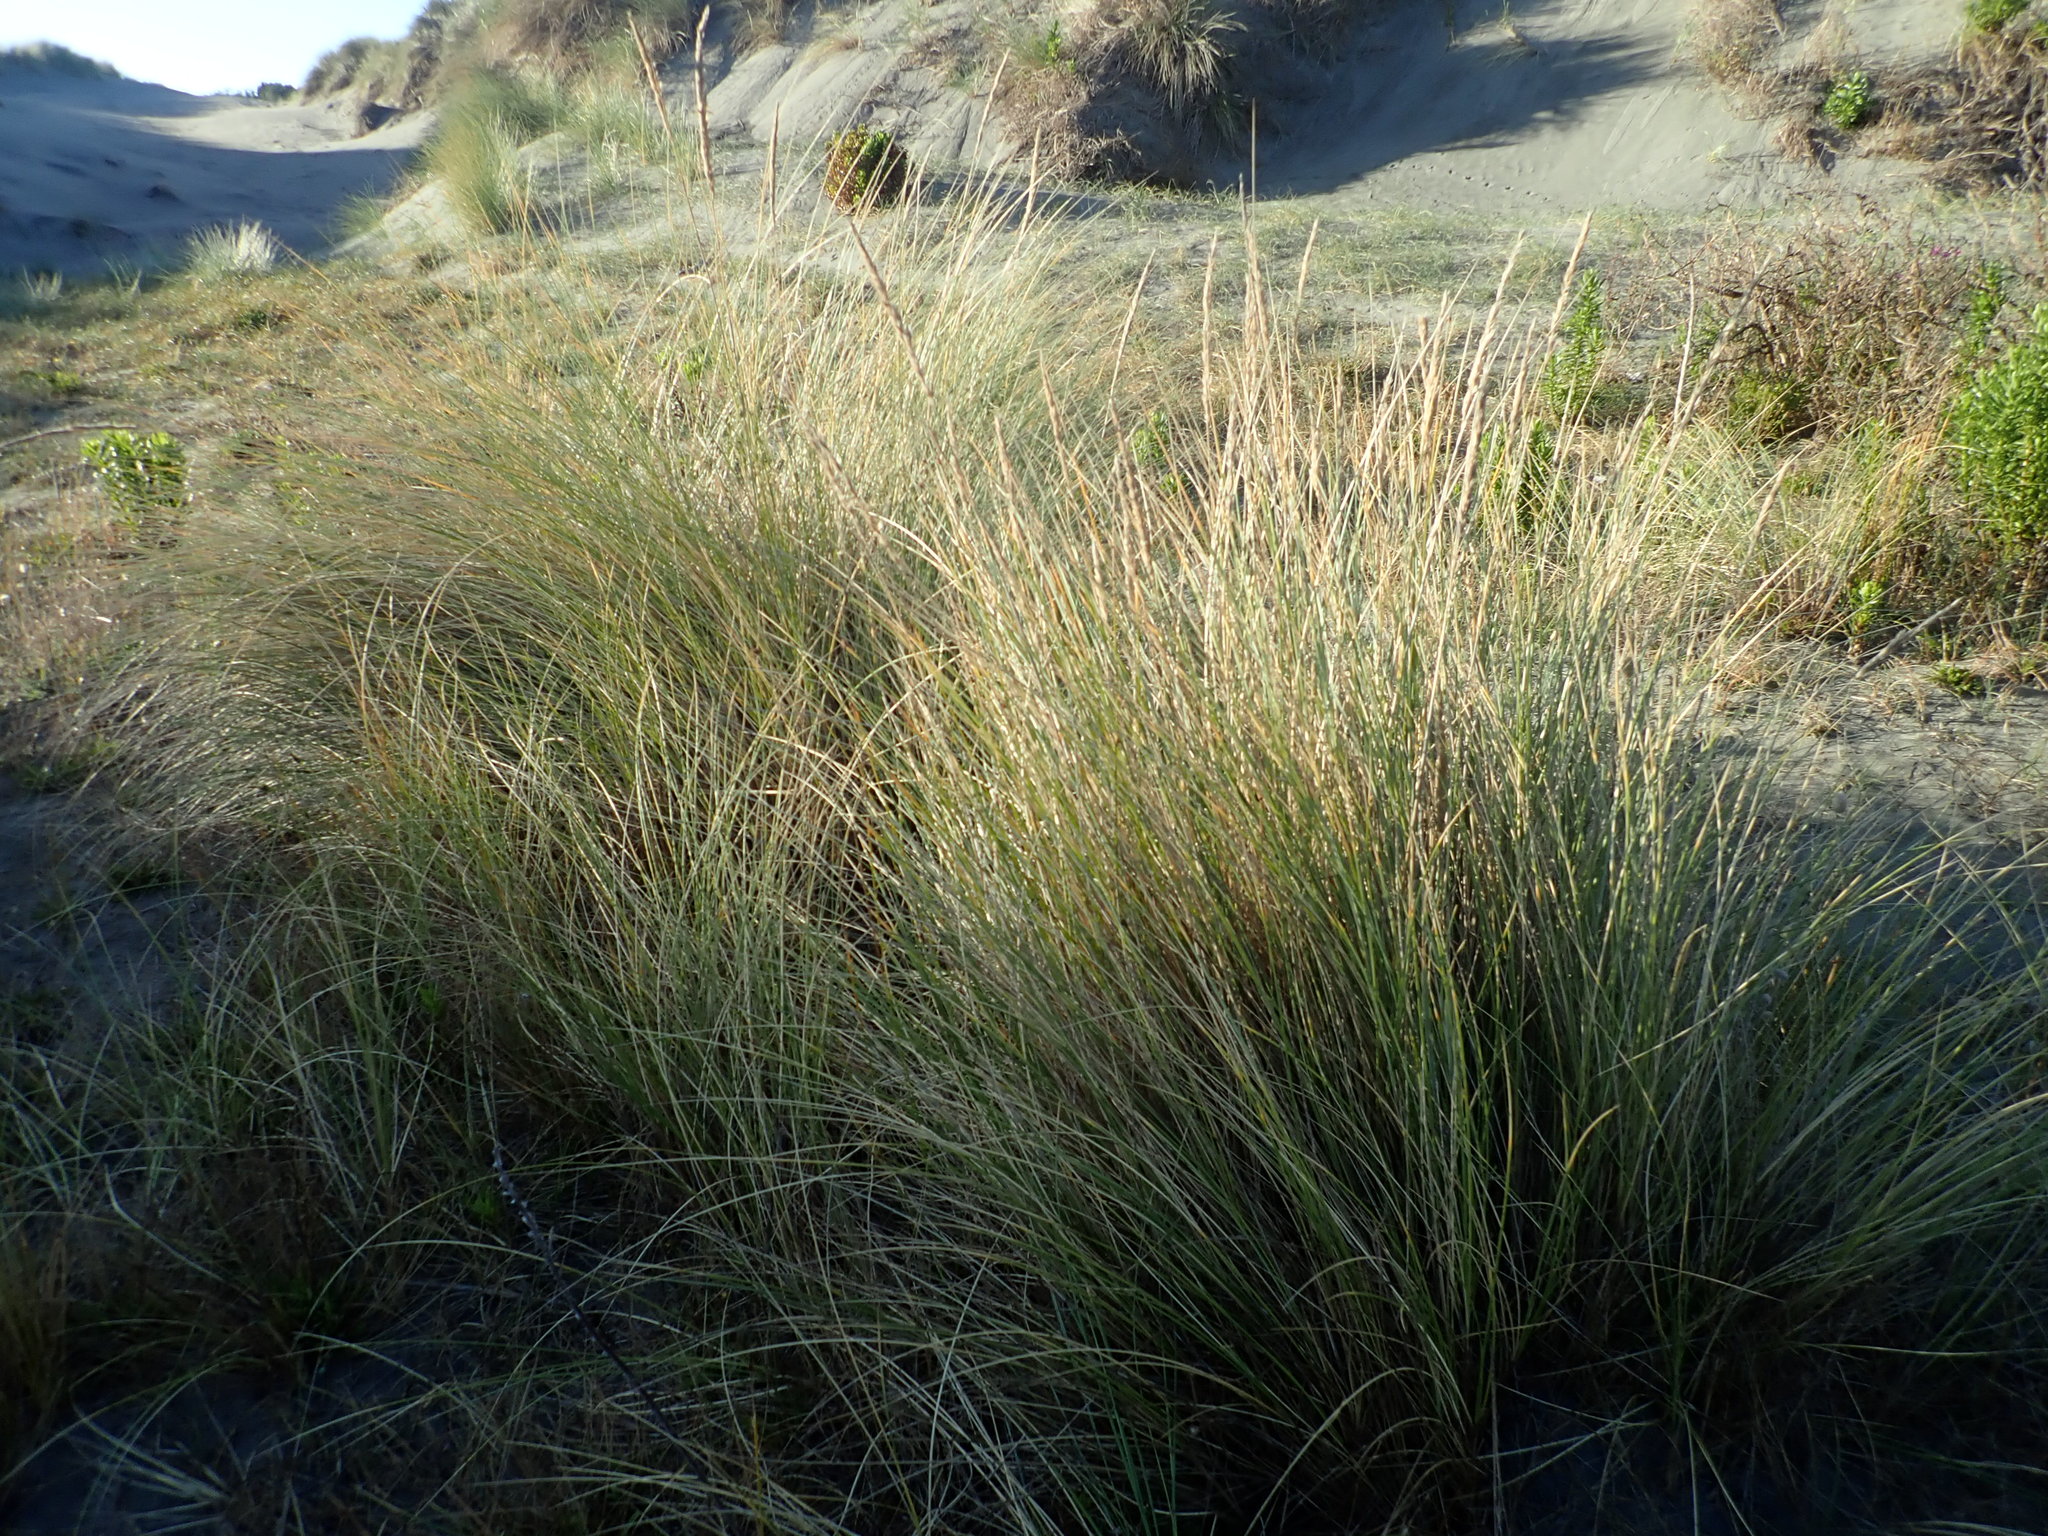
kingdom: Plantae
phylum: Tracheophyta
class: Liliopsida
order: Poales
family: Poaceae
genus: Calamagrostis
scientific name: Calamagrostis arenaria
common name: European beachgrass
